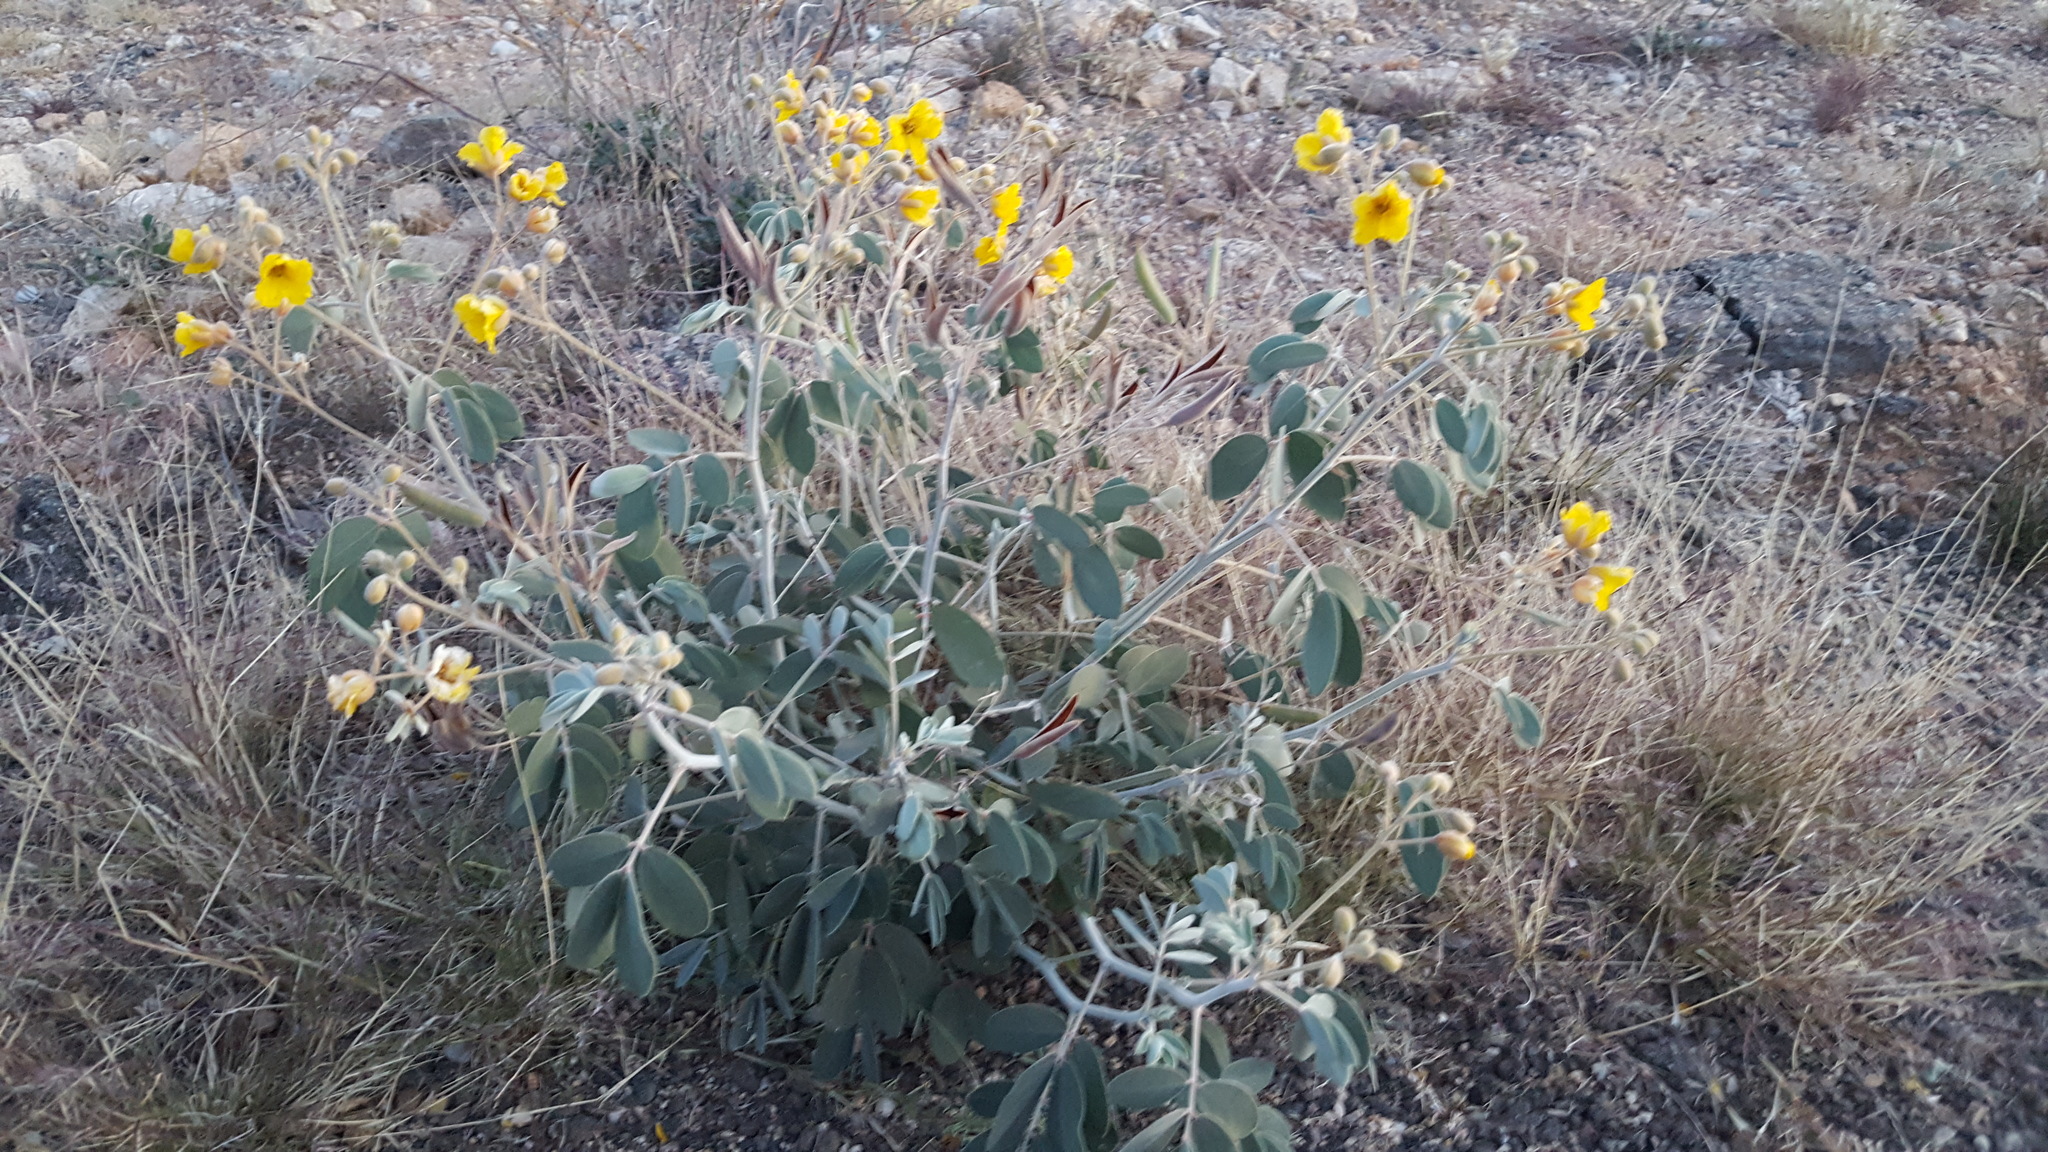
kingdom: Plantae
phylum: Tracheophyta
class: Magnoliopsida
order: Fabales
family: Fabaceae
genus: Senna
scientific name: Senna covesii
